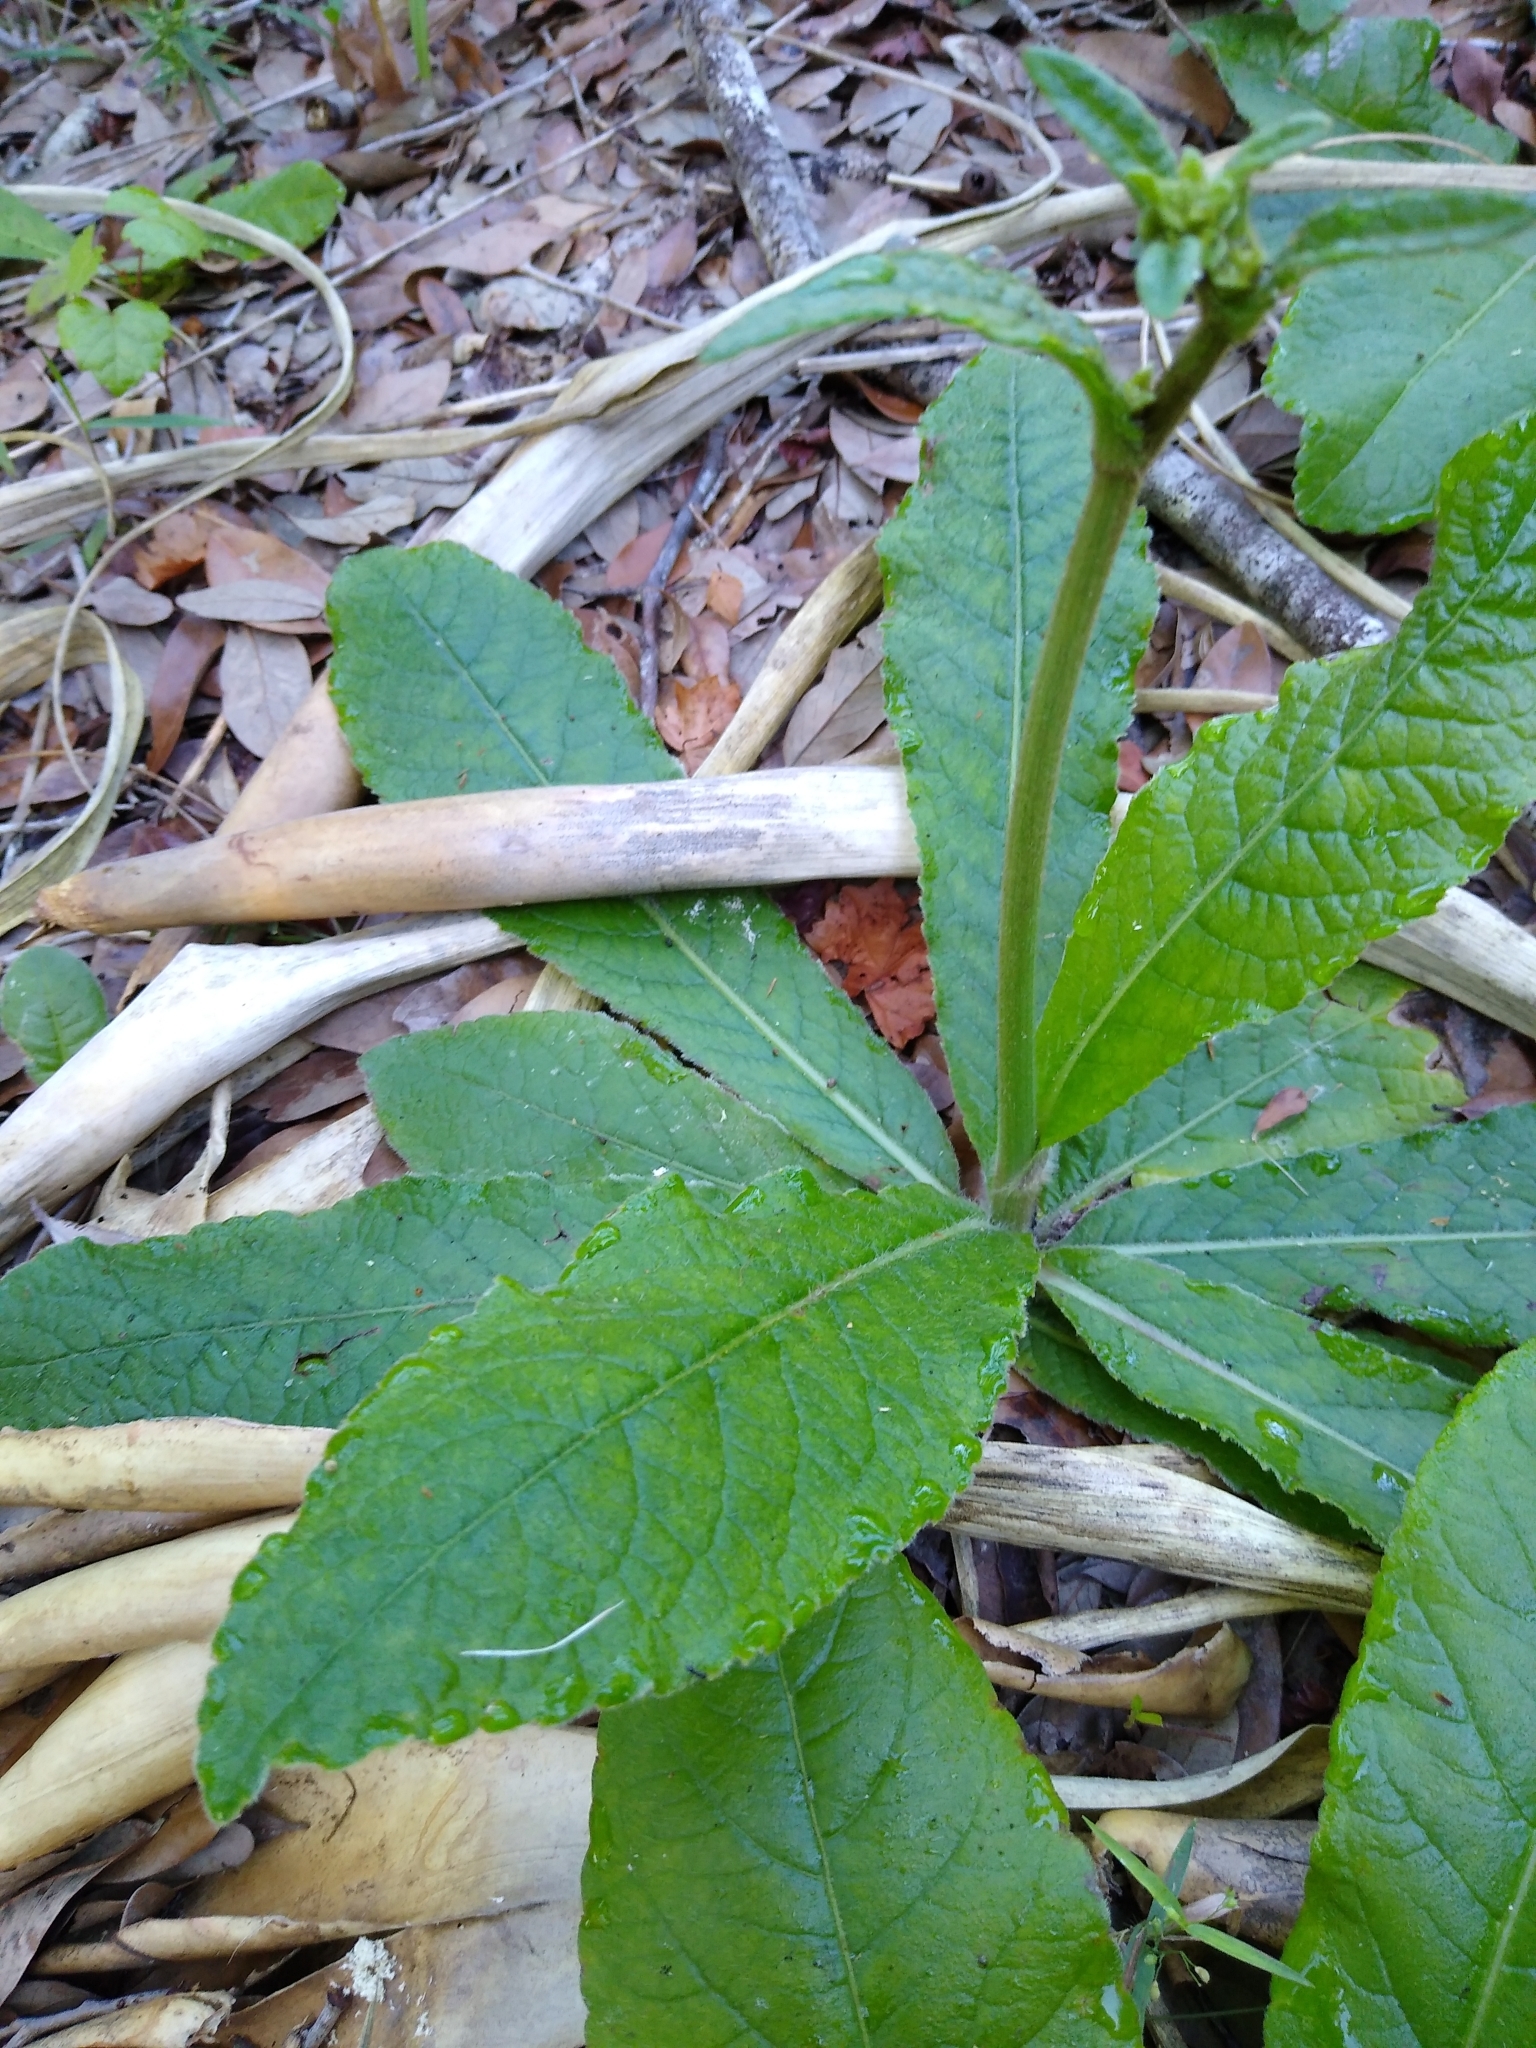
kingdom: Plantae
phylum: Tracheophyta
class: Magnoliopsida
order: Asterales
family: Asteraceae
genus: Elephantopus
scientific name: Elephantopus elatus
